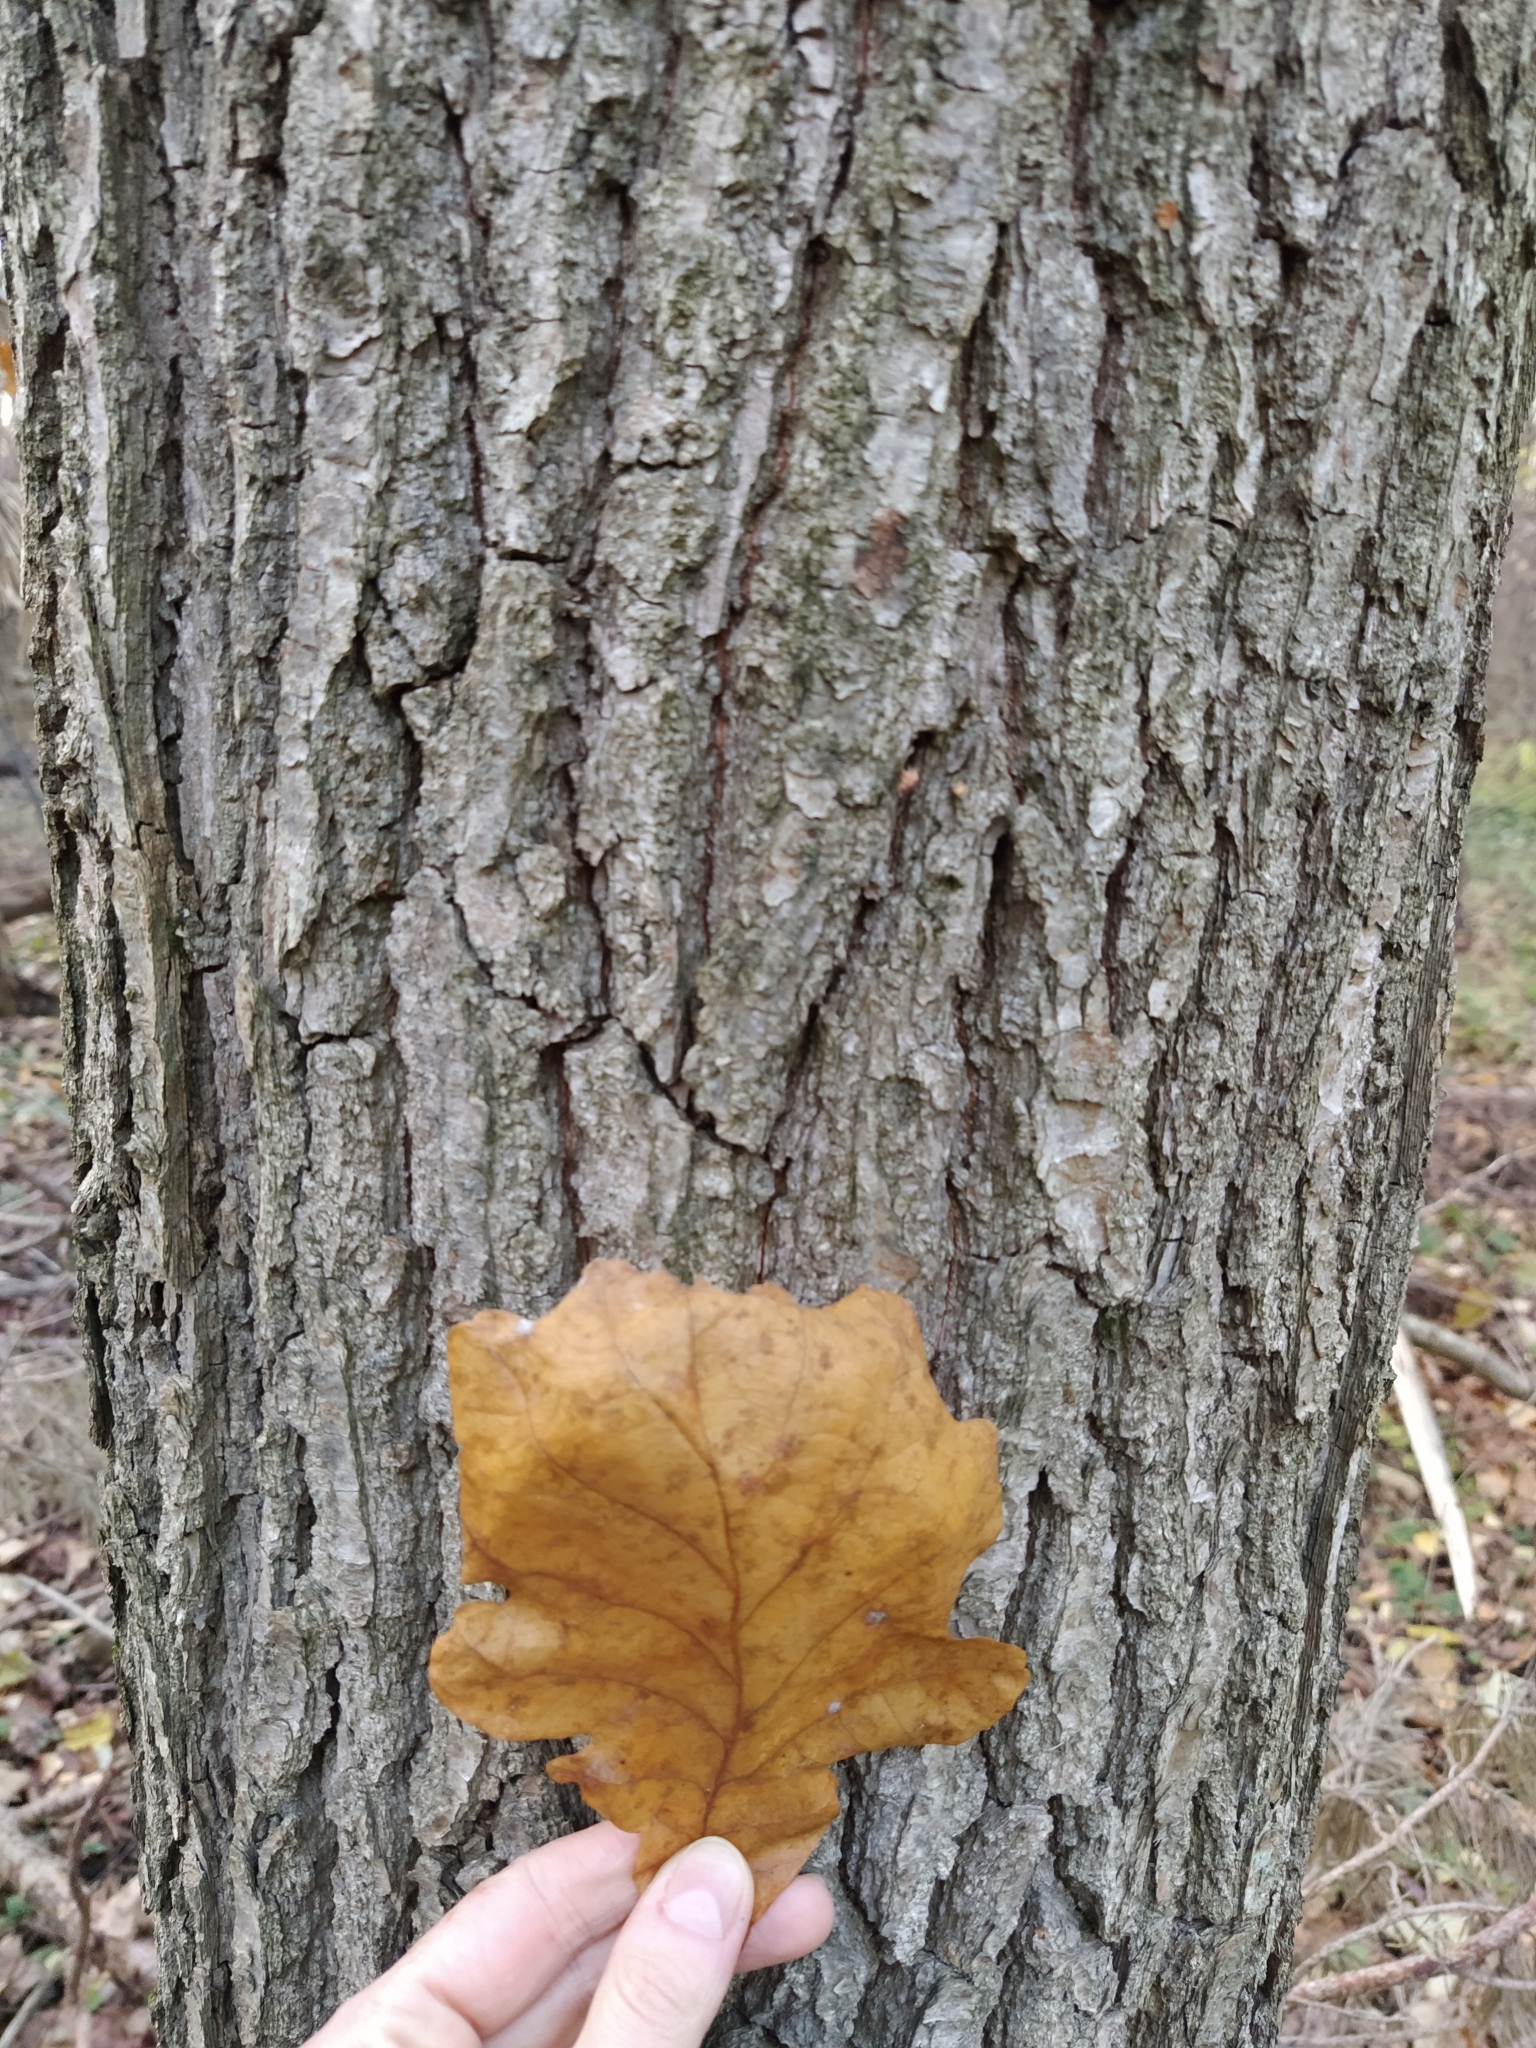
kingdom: Plantae
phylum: Tracheophyta
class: Magnoliopsida
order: Fagales
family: Fagaceae
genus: Quercus
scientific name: Quercus robur
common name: Pedunculate oak
